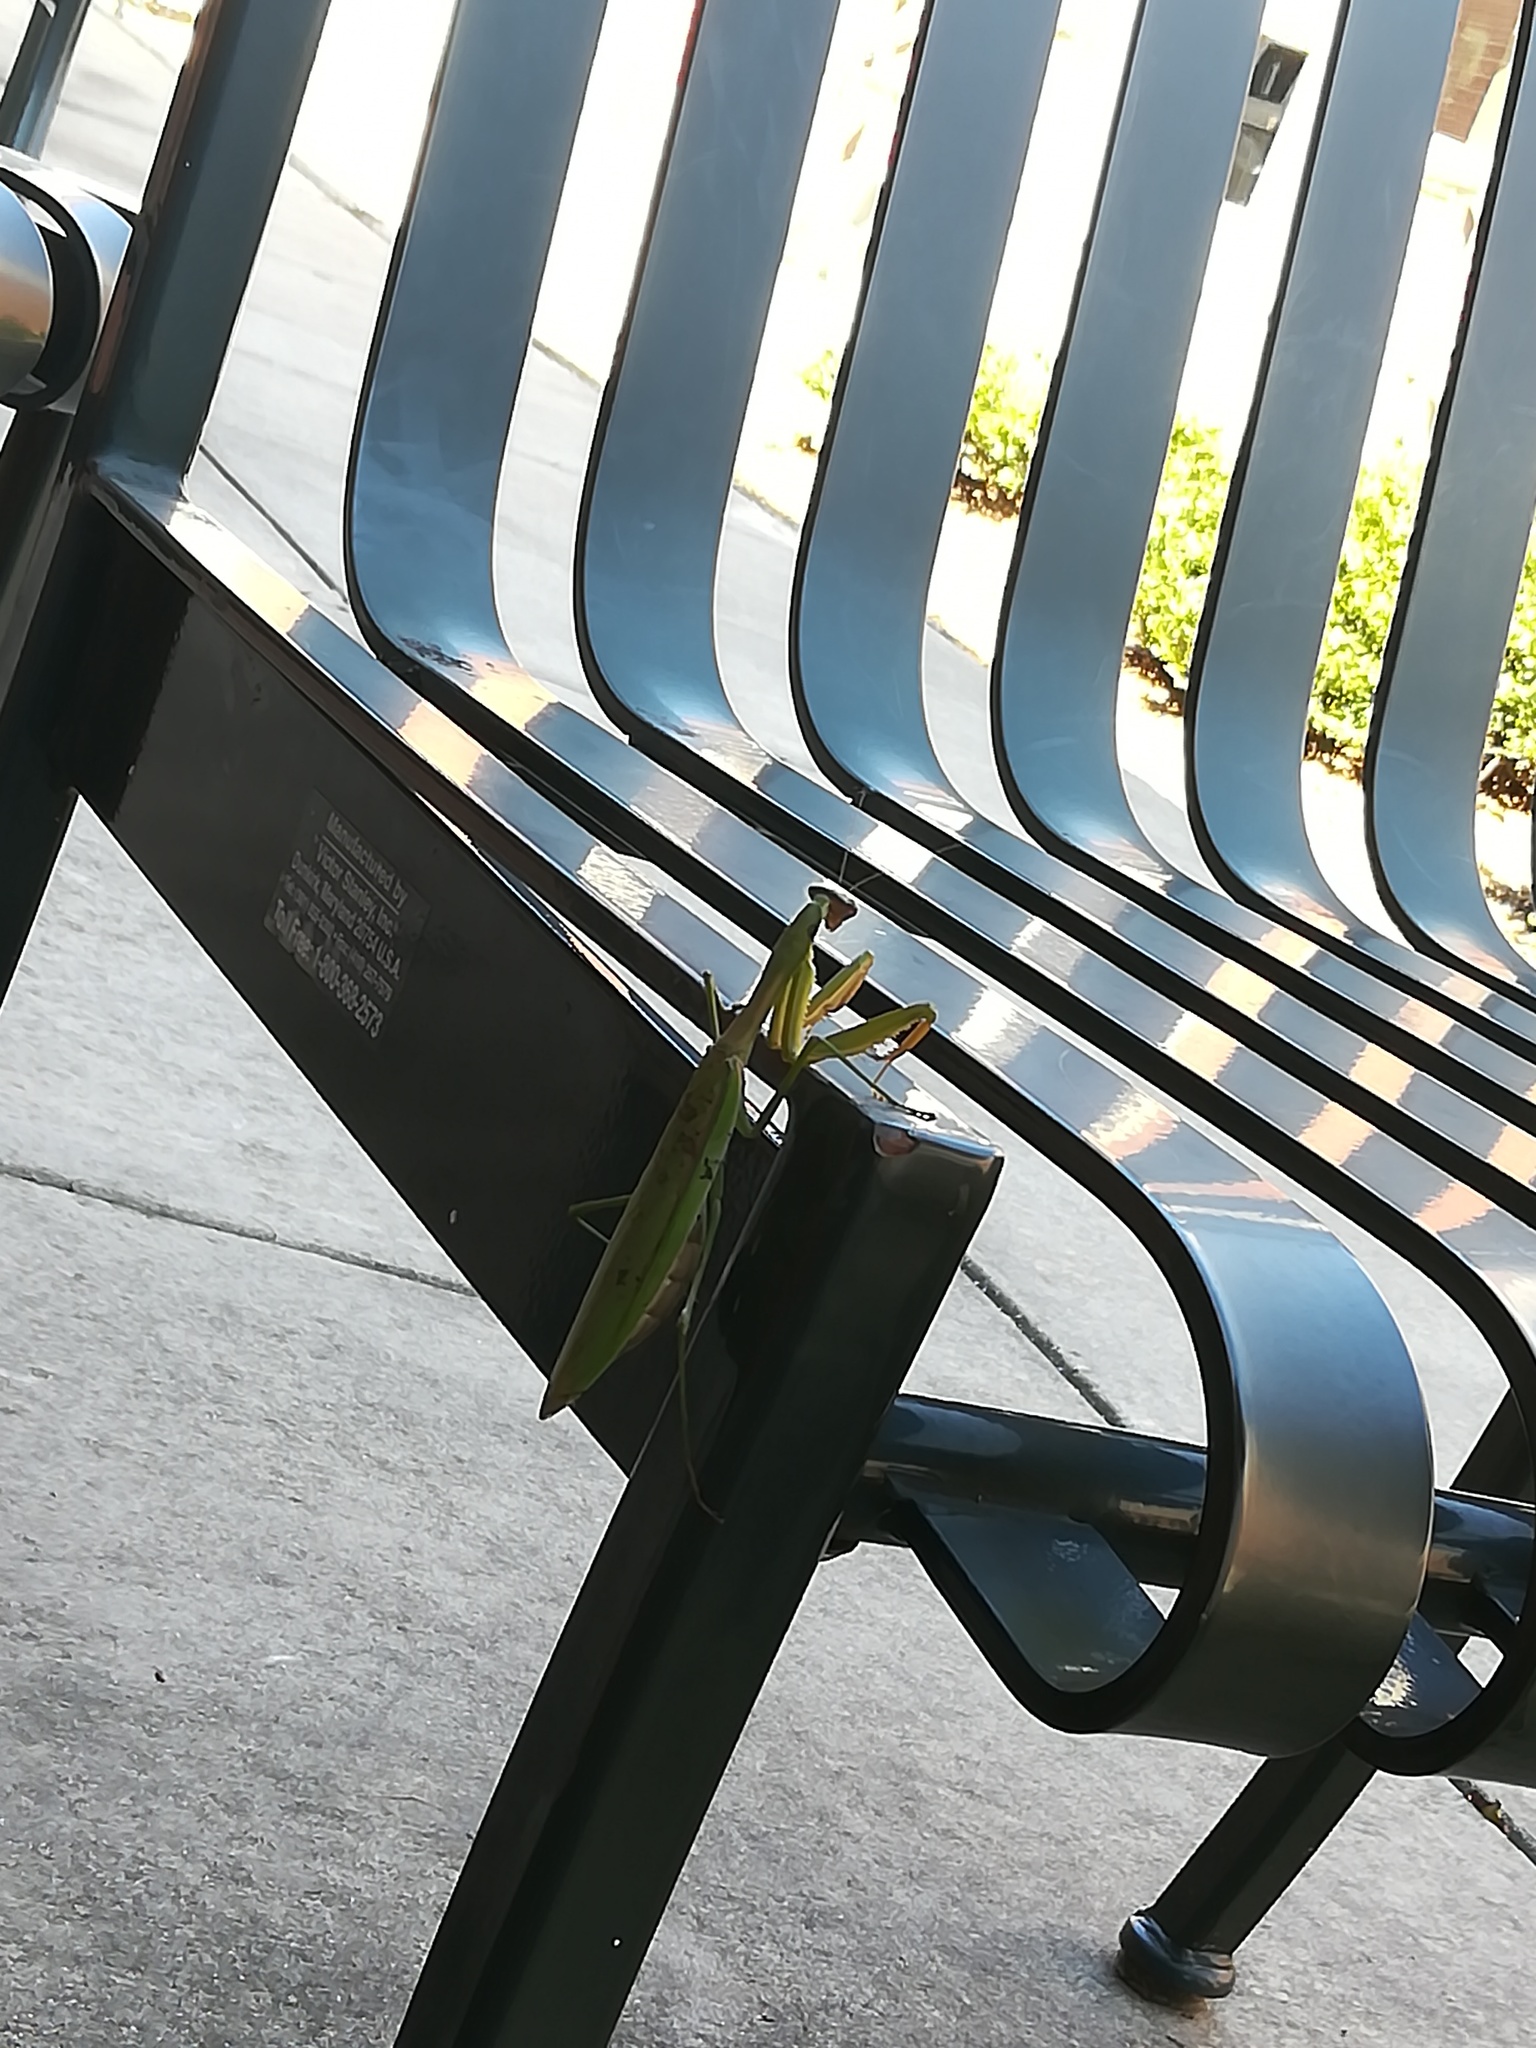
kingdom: Animalia
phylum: Arthropoda
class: Insecta
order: Mantodea
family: Mantidae
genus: Tenodera
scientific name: Tenodera sinensis
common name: Chinese mantis
